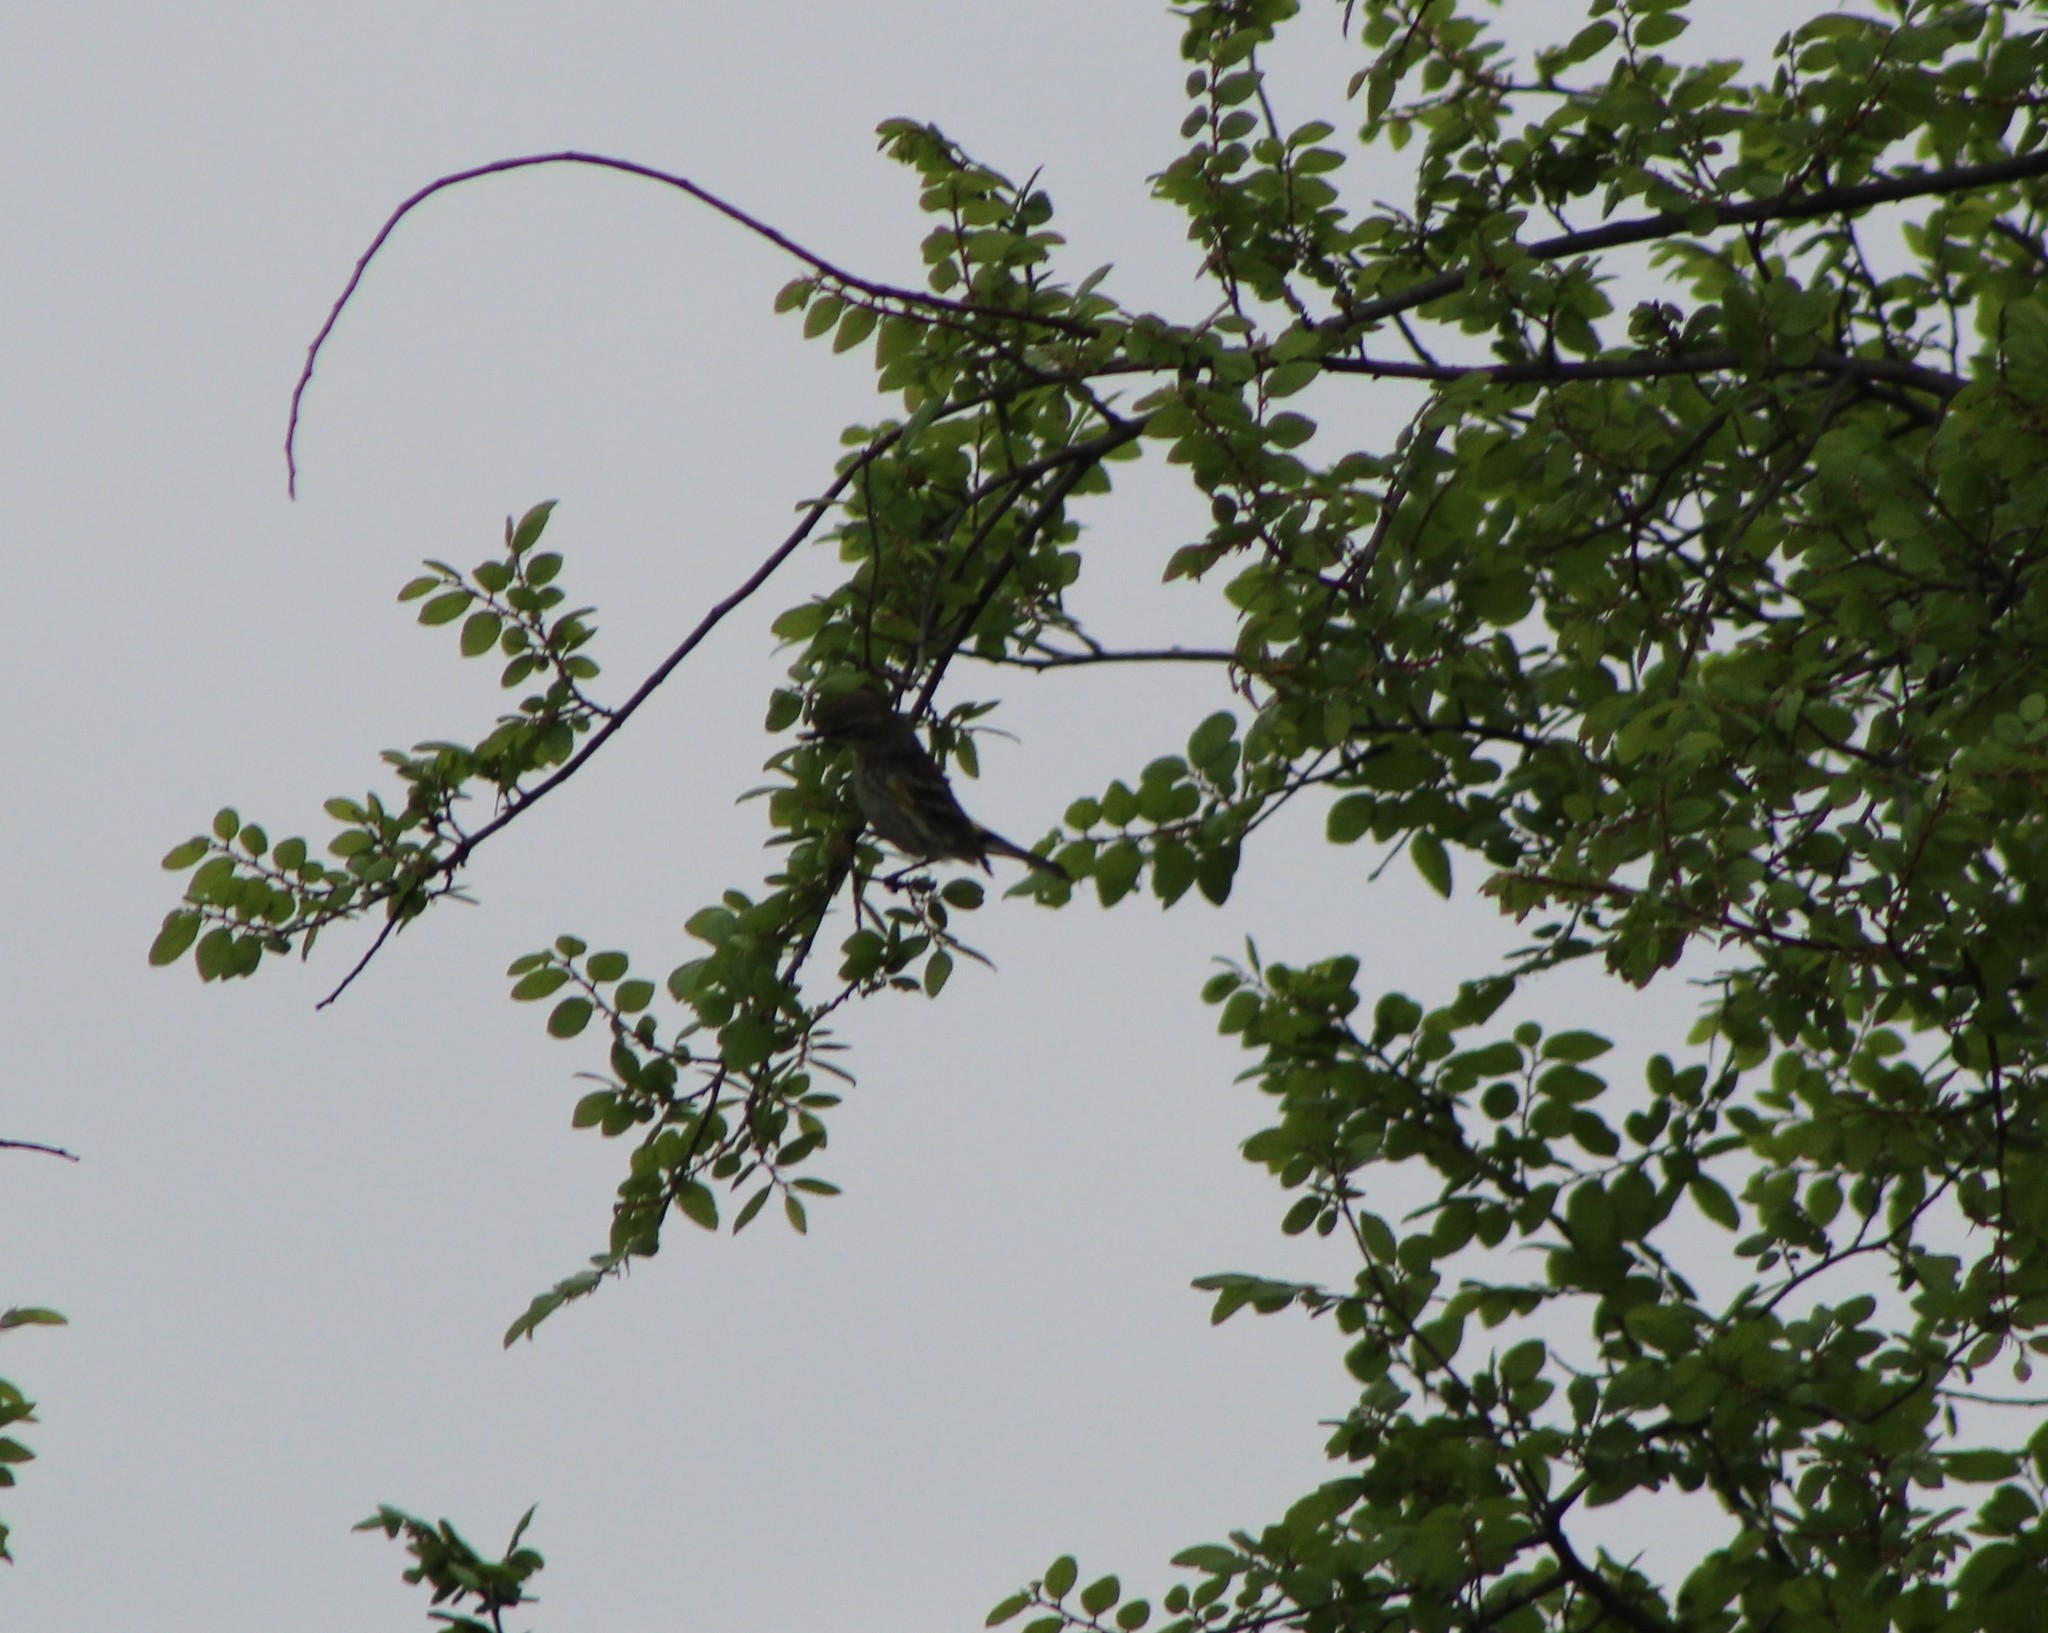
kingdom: Animalia
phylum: Chordata
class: Aves
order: Passeriformes
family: Parulidae
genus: Setophaga
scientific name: Setophaga coronata
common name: Myrtle warbler
